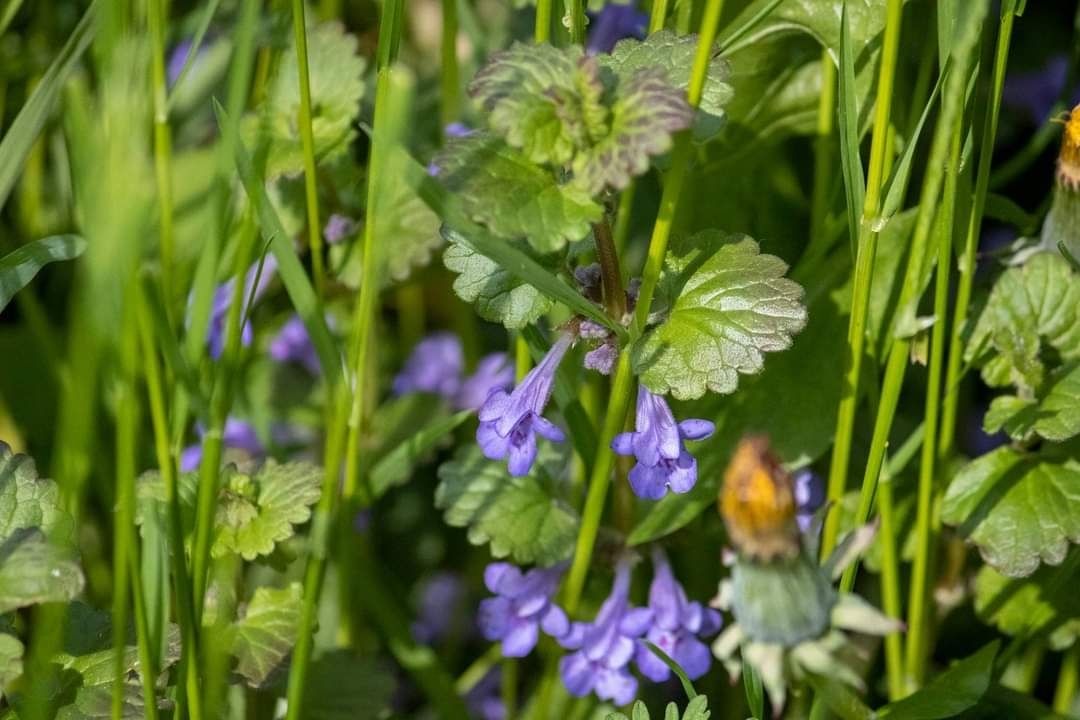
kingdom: Plantae
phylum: Tracheophyta
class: Magnoliopsida
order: Lamiales
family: Lamiaceae
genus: Glechoma
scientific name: Glechoma hederacea
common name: Ground ivy
